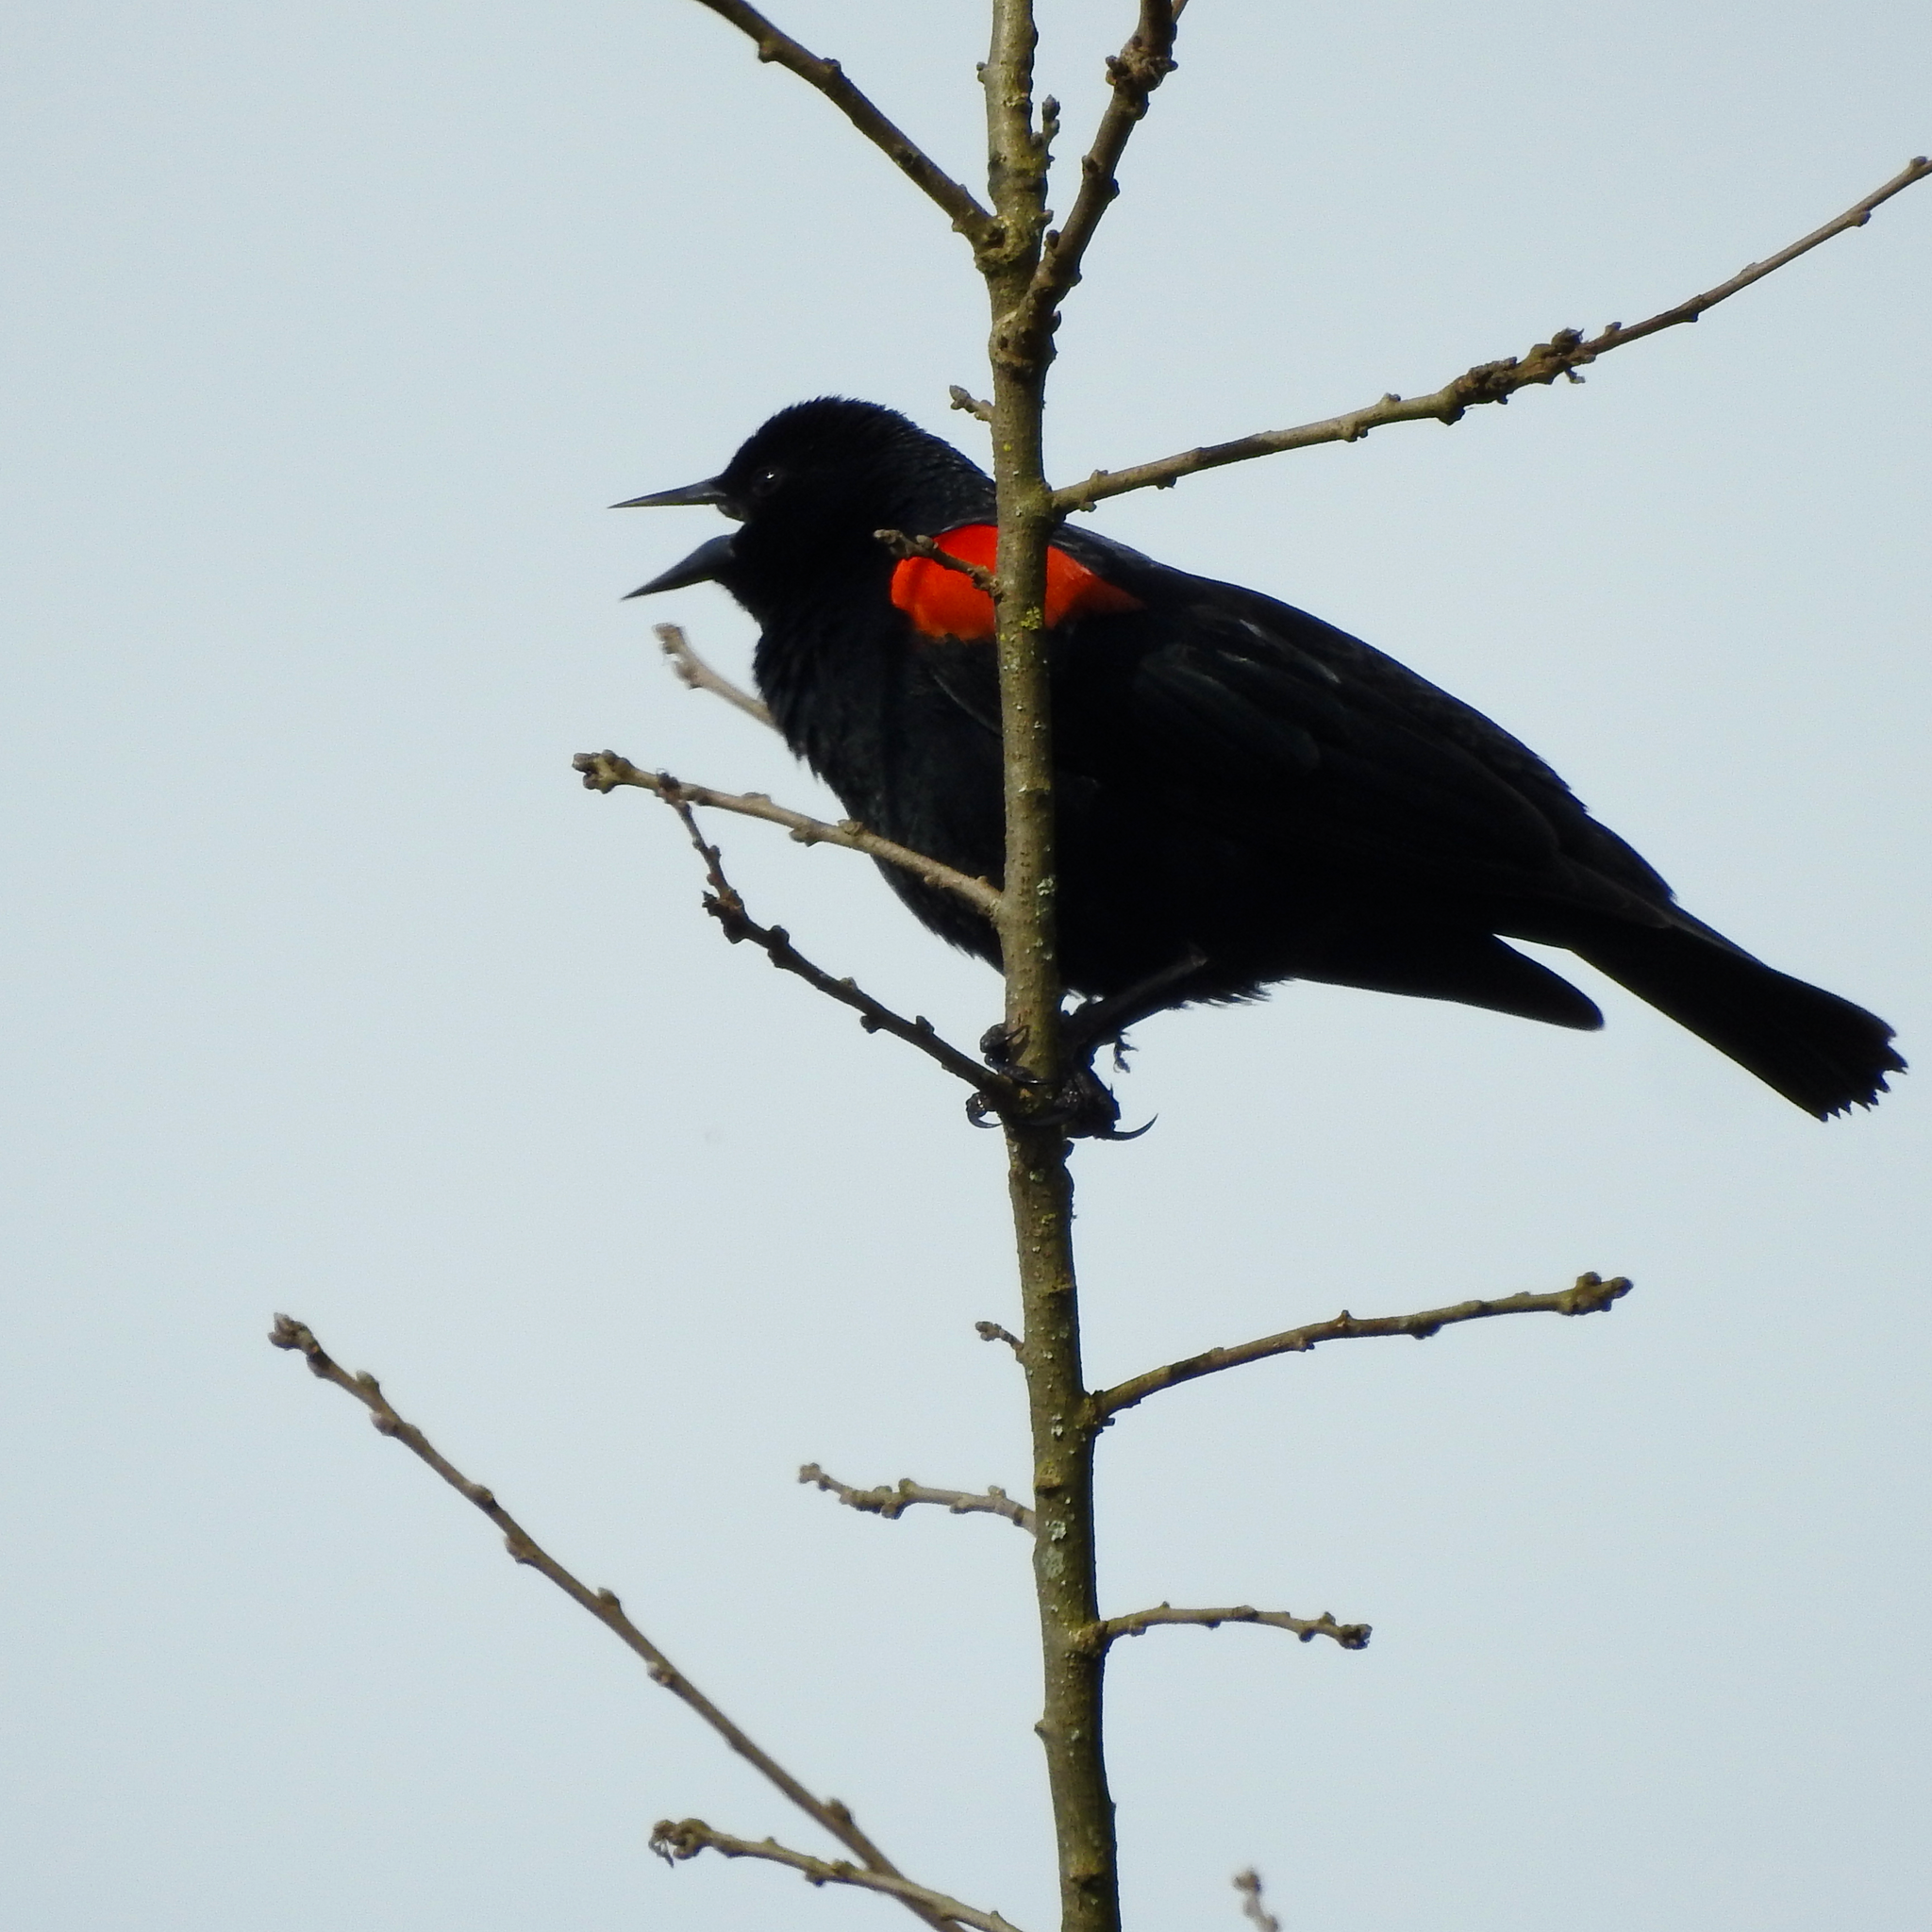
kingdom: Animalia
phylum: Chordata
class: Aves
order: Passeriformes
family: Icteridae
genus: Agelaius
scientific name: Agelaius phoeniceus
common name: Red-winged blackbird
